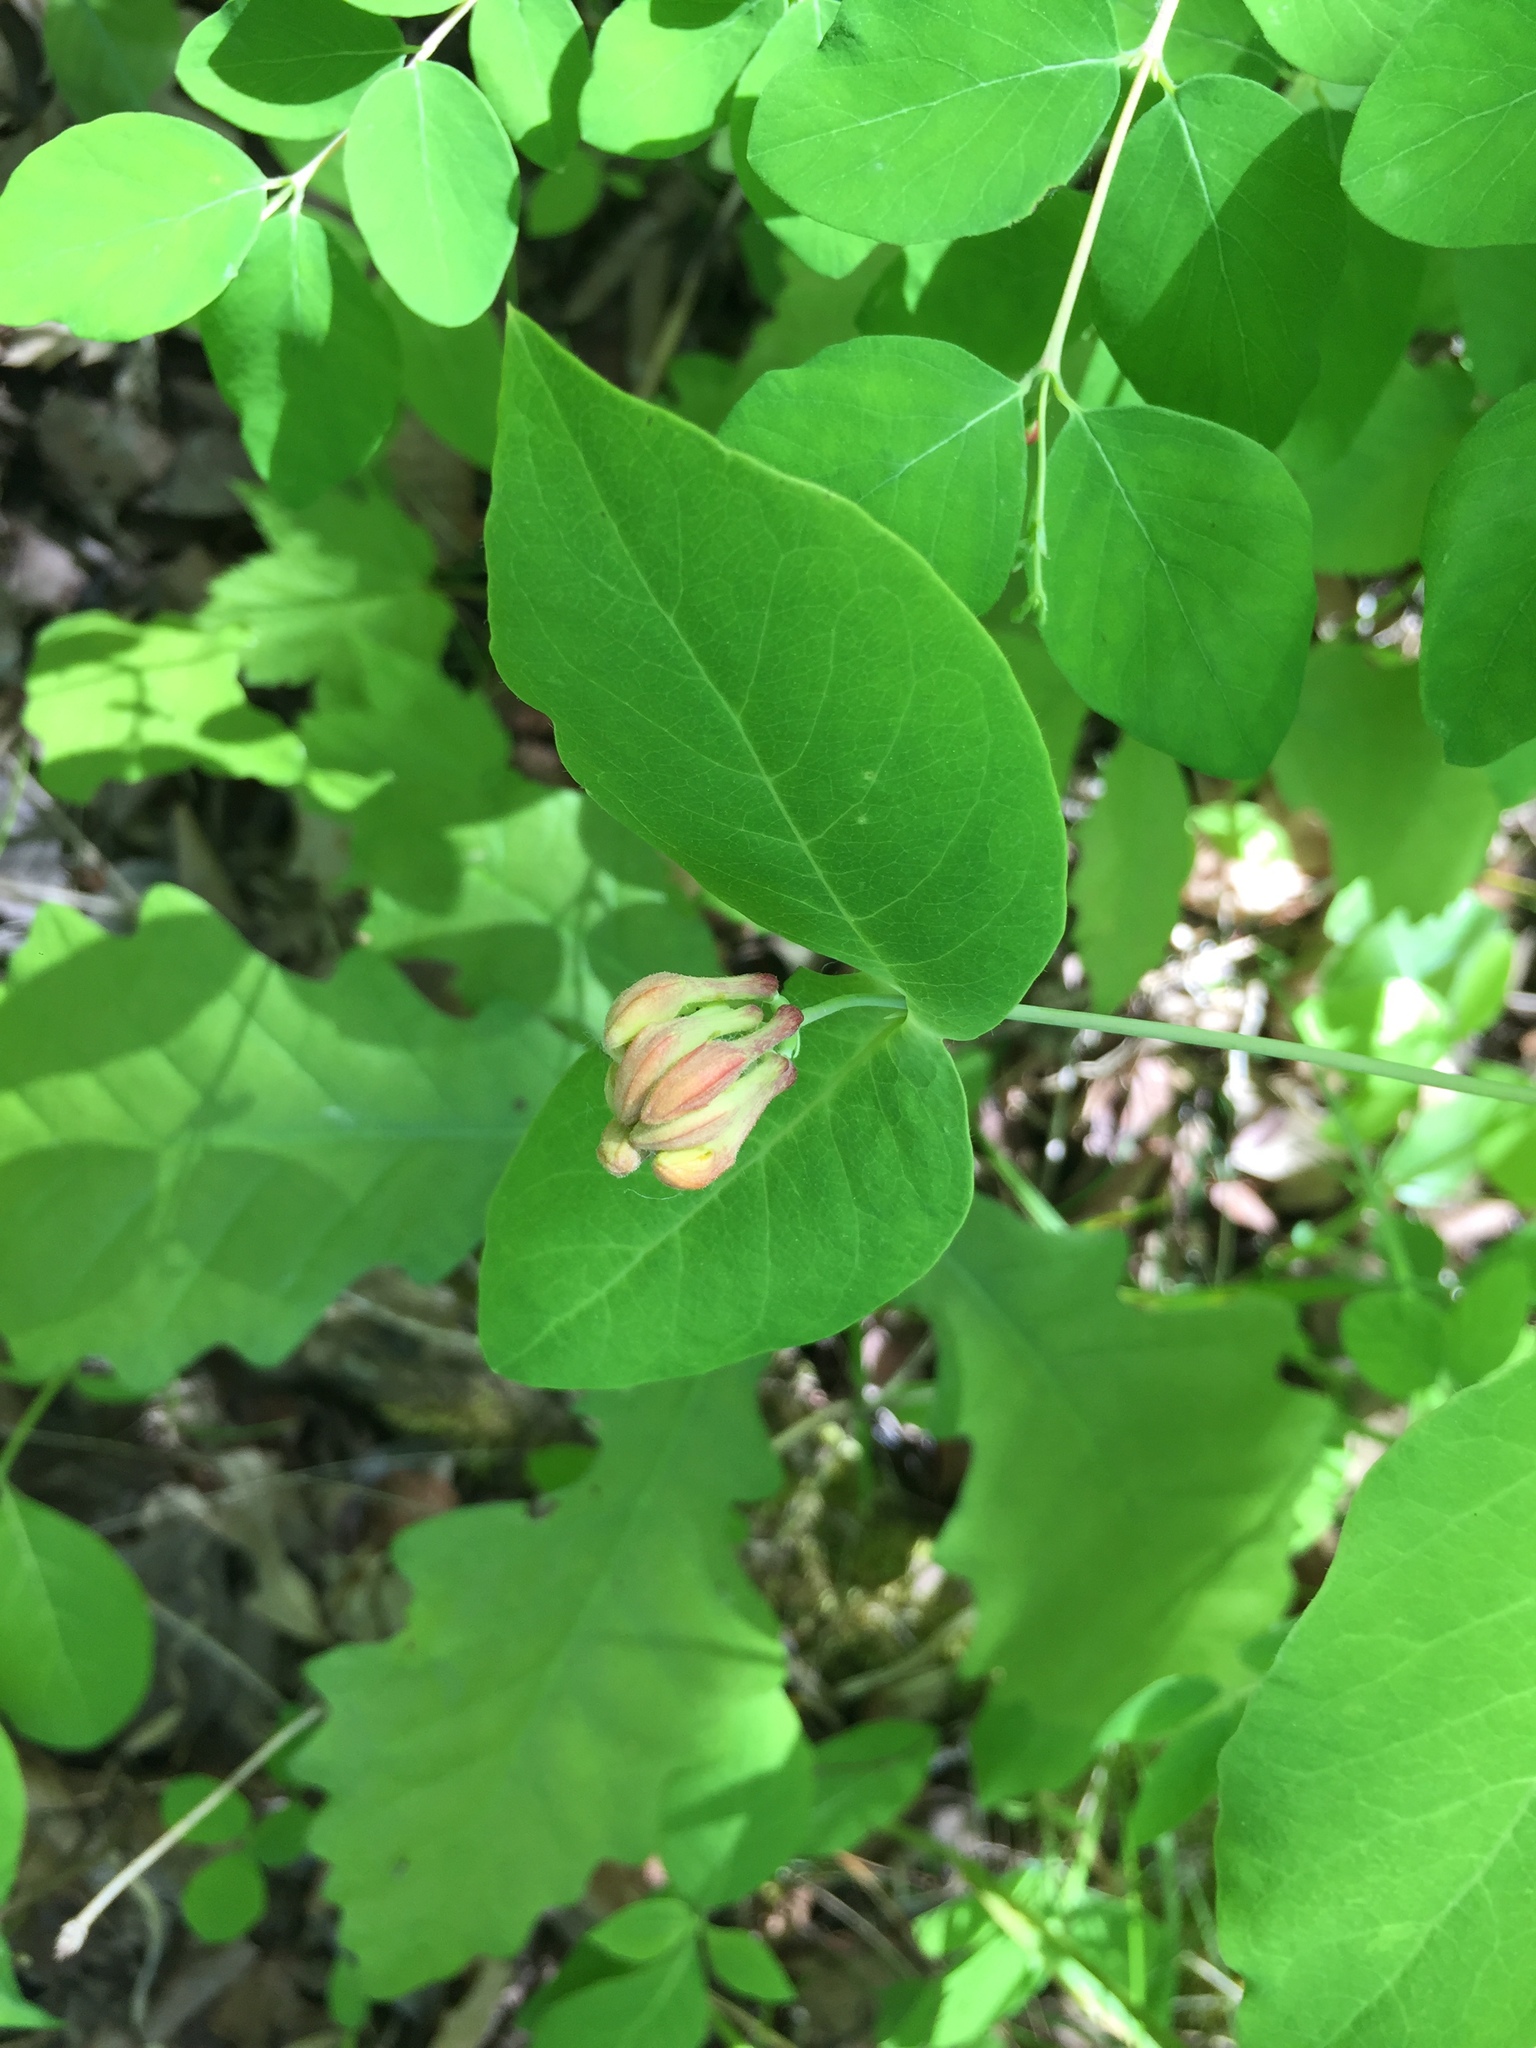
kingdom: Plantae
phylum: Tracheophyta
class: Magnoliopsida
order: Dipsacales
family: Caprifoliaceae
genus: Lonicera
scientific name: Lonicera dioica
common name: Limber honeysuckle
